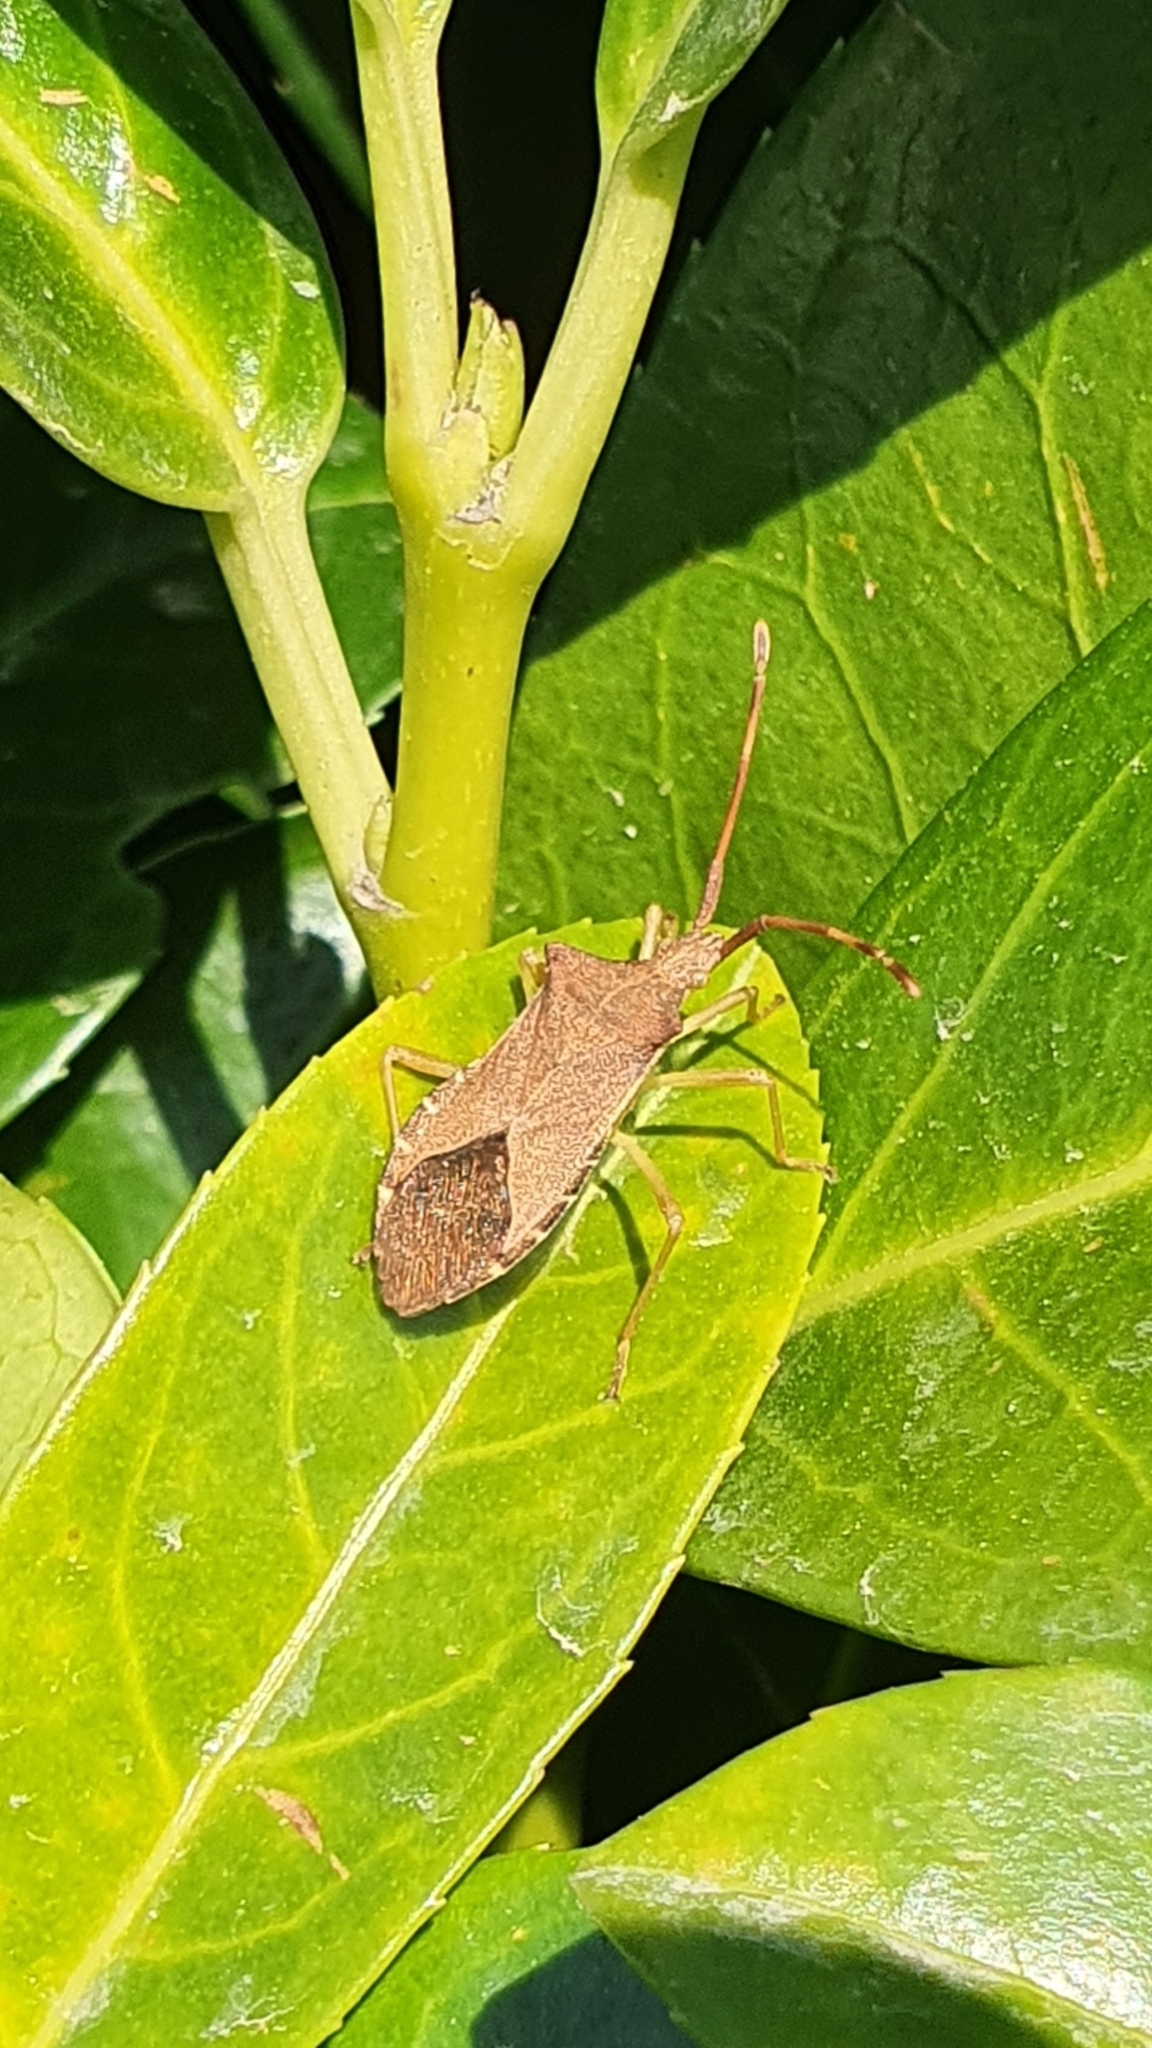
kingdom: Animalia
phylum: Arthropoda
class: Insecta
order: Hemiptera
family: Coreidae
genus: Gonocerus
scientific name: Gonocerus acuteangulatus
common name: Box bug
